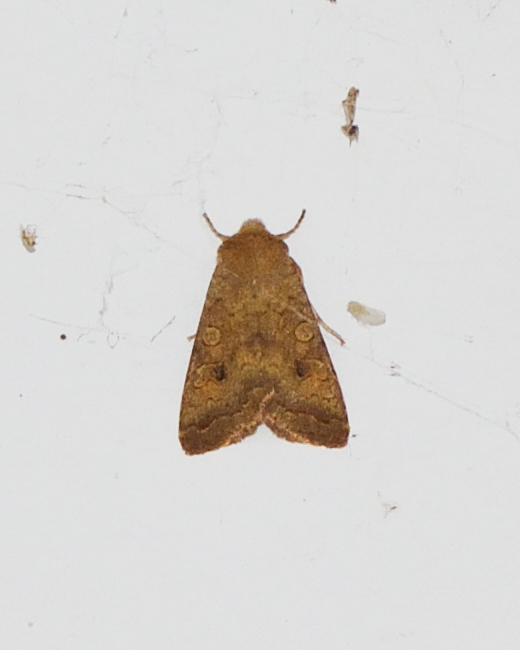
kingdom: Animalia
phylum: Arthropoda
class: Insecta
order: Lepidoptera
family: Noctuidae
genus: Sunira
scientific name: Sunira circellaris
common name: Brick
